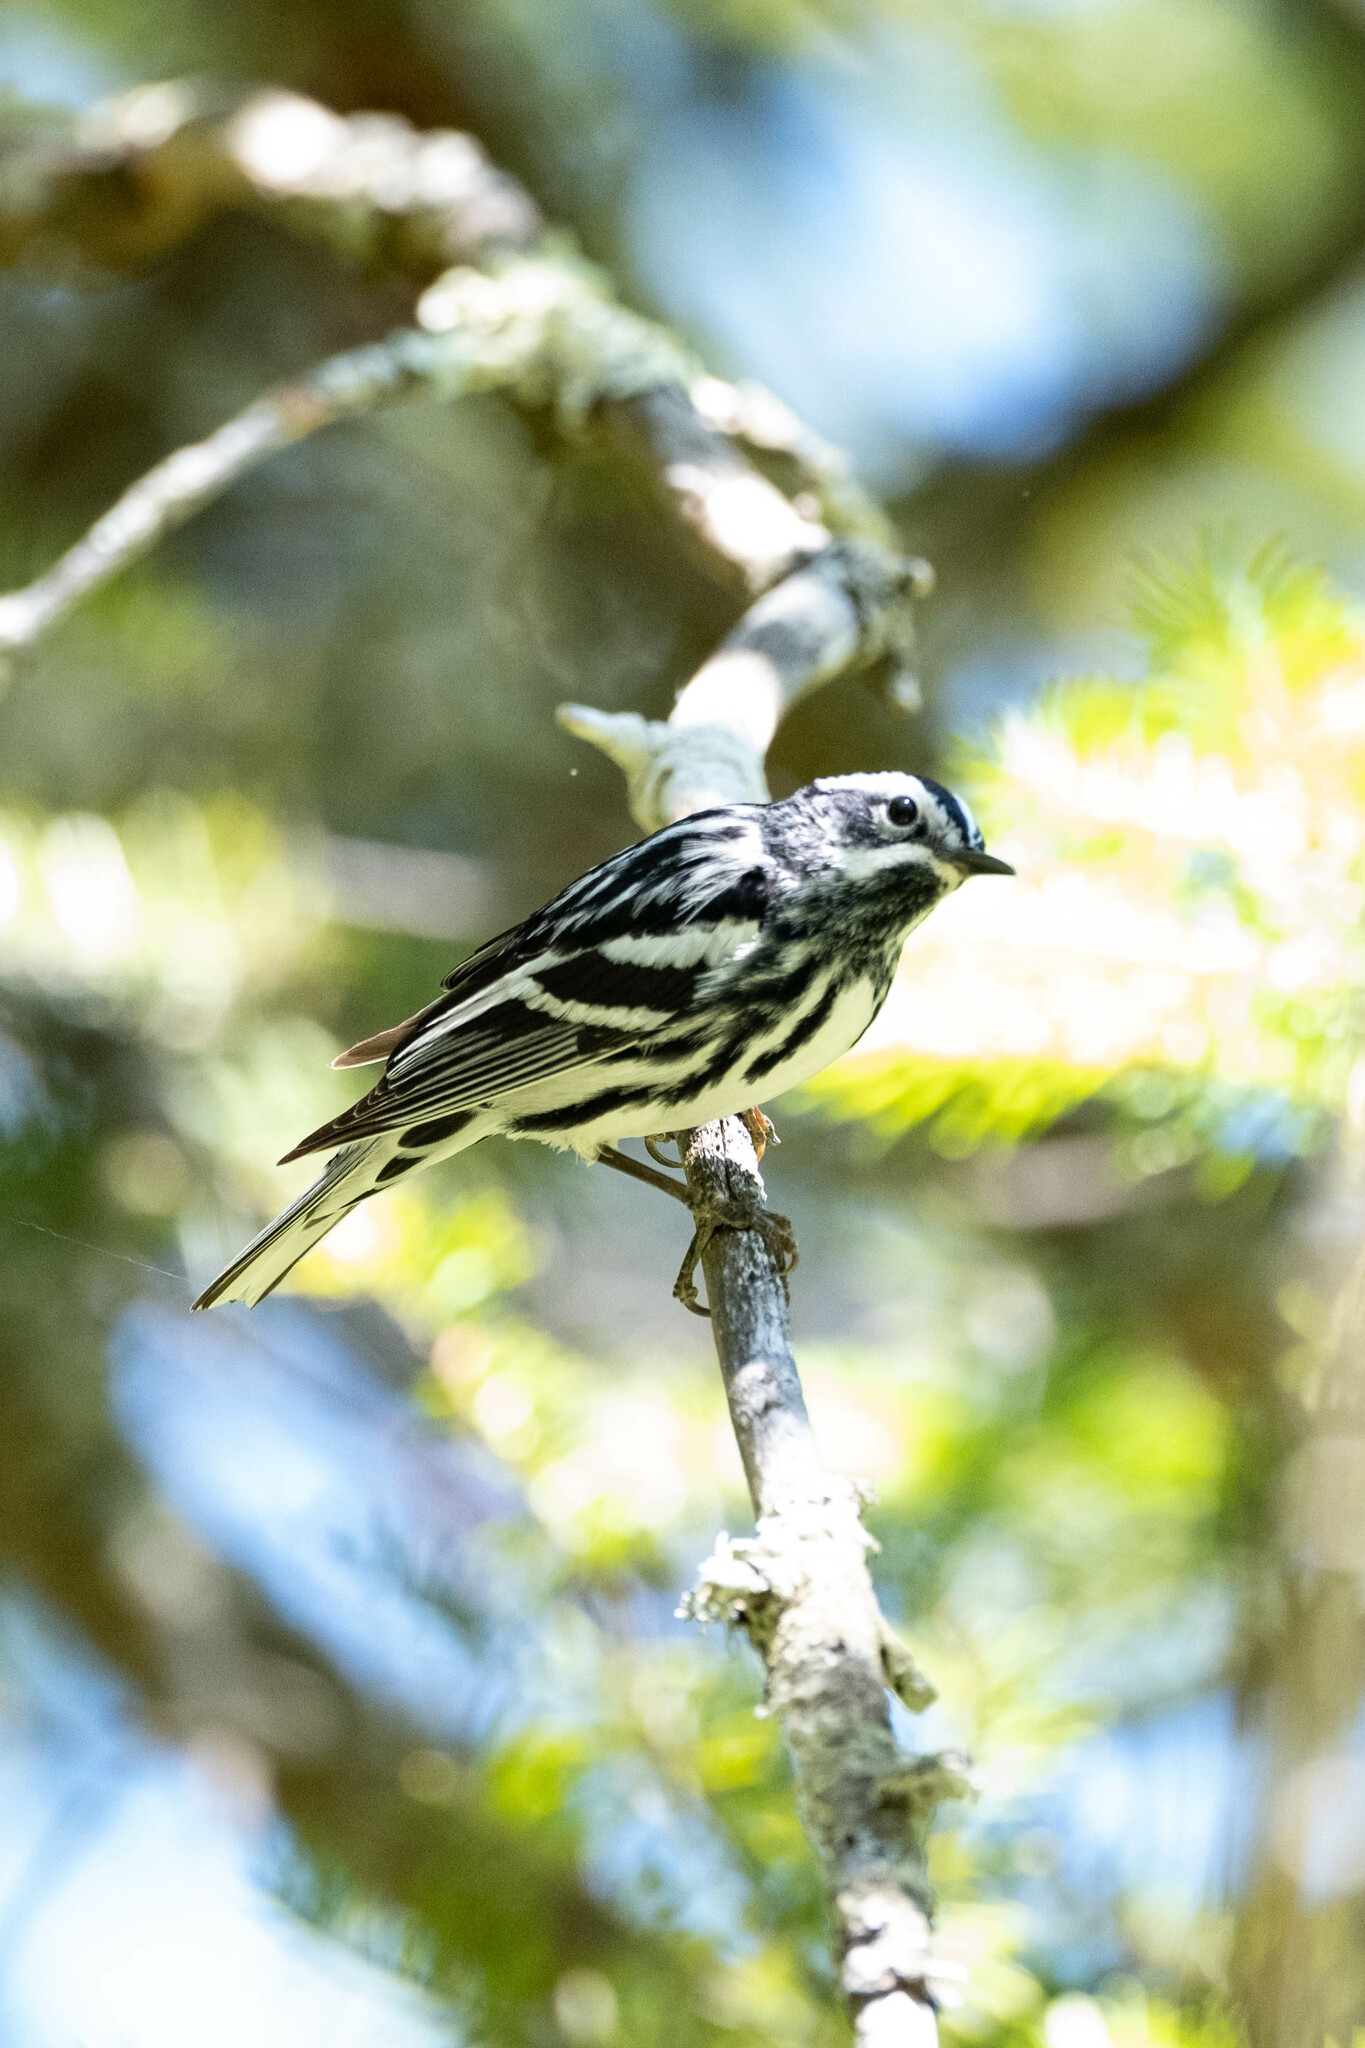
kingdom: Animalia
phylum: Chordata
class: Aves
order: Passeriformes
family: Parulidae
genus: Mniotilta
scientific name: Mniotilta varia
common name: Black-and-white warbler
